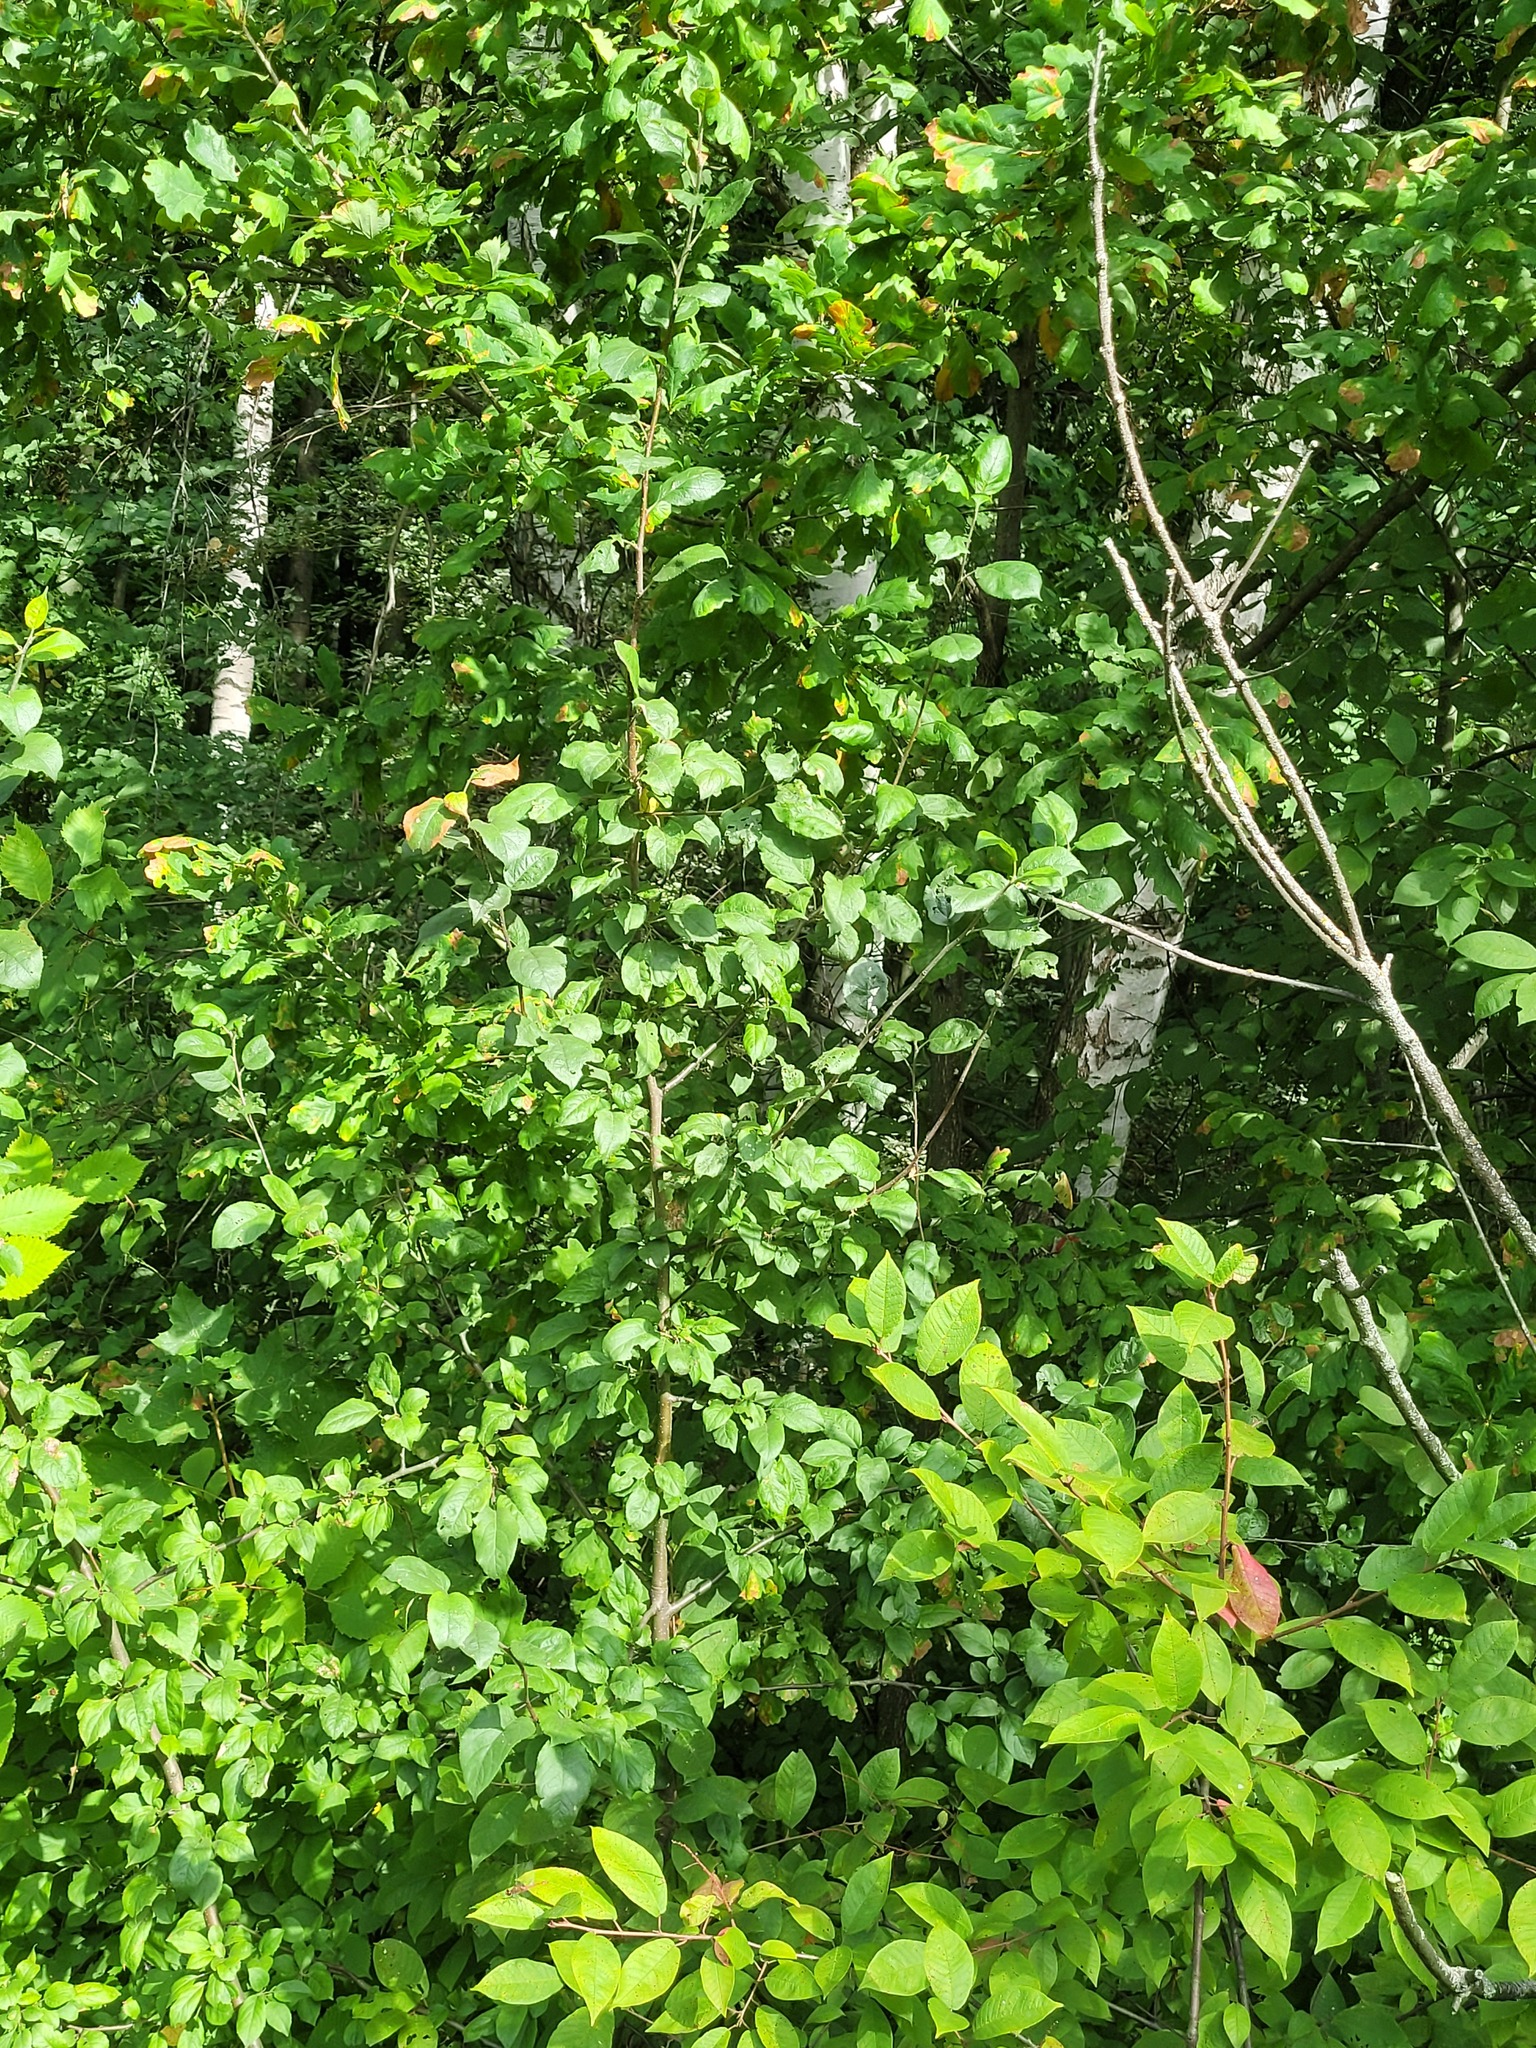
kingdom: Plantae
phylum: Tracheophyta
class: Magnoliopsida
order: Rosales
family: Rosaceae
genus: Malus
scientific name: Malus domestica
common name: Apple
